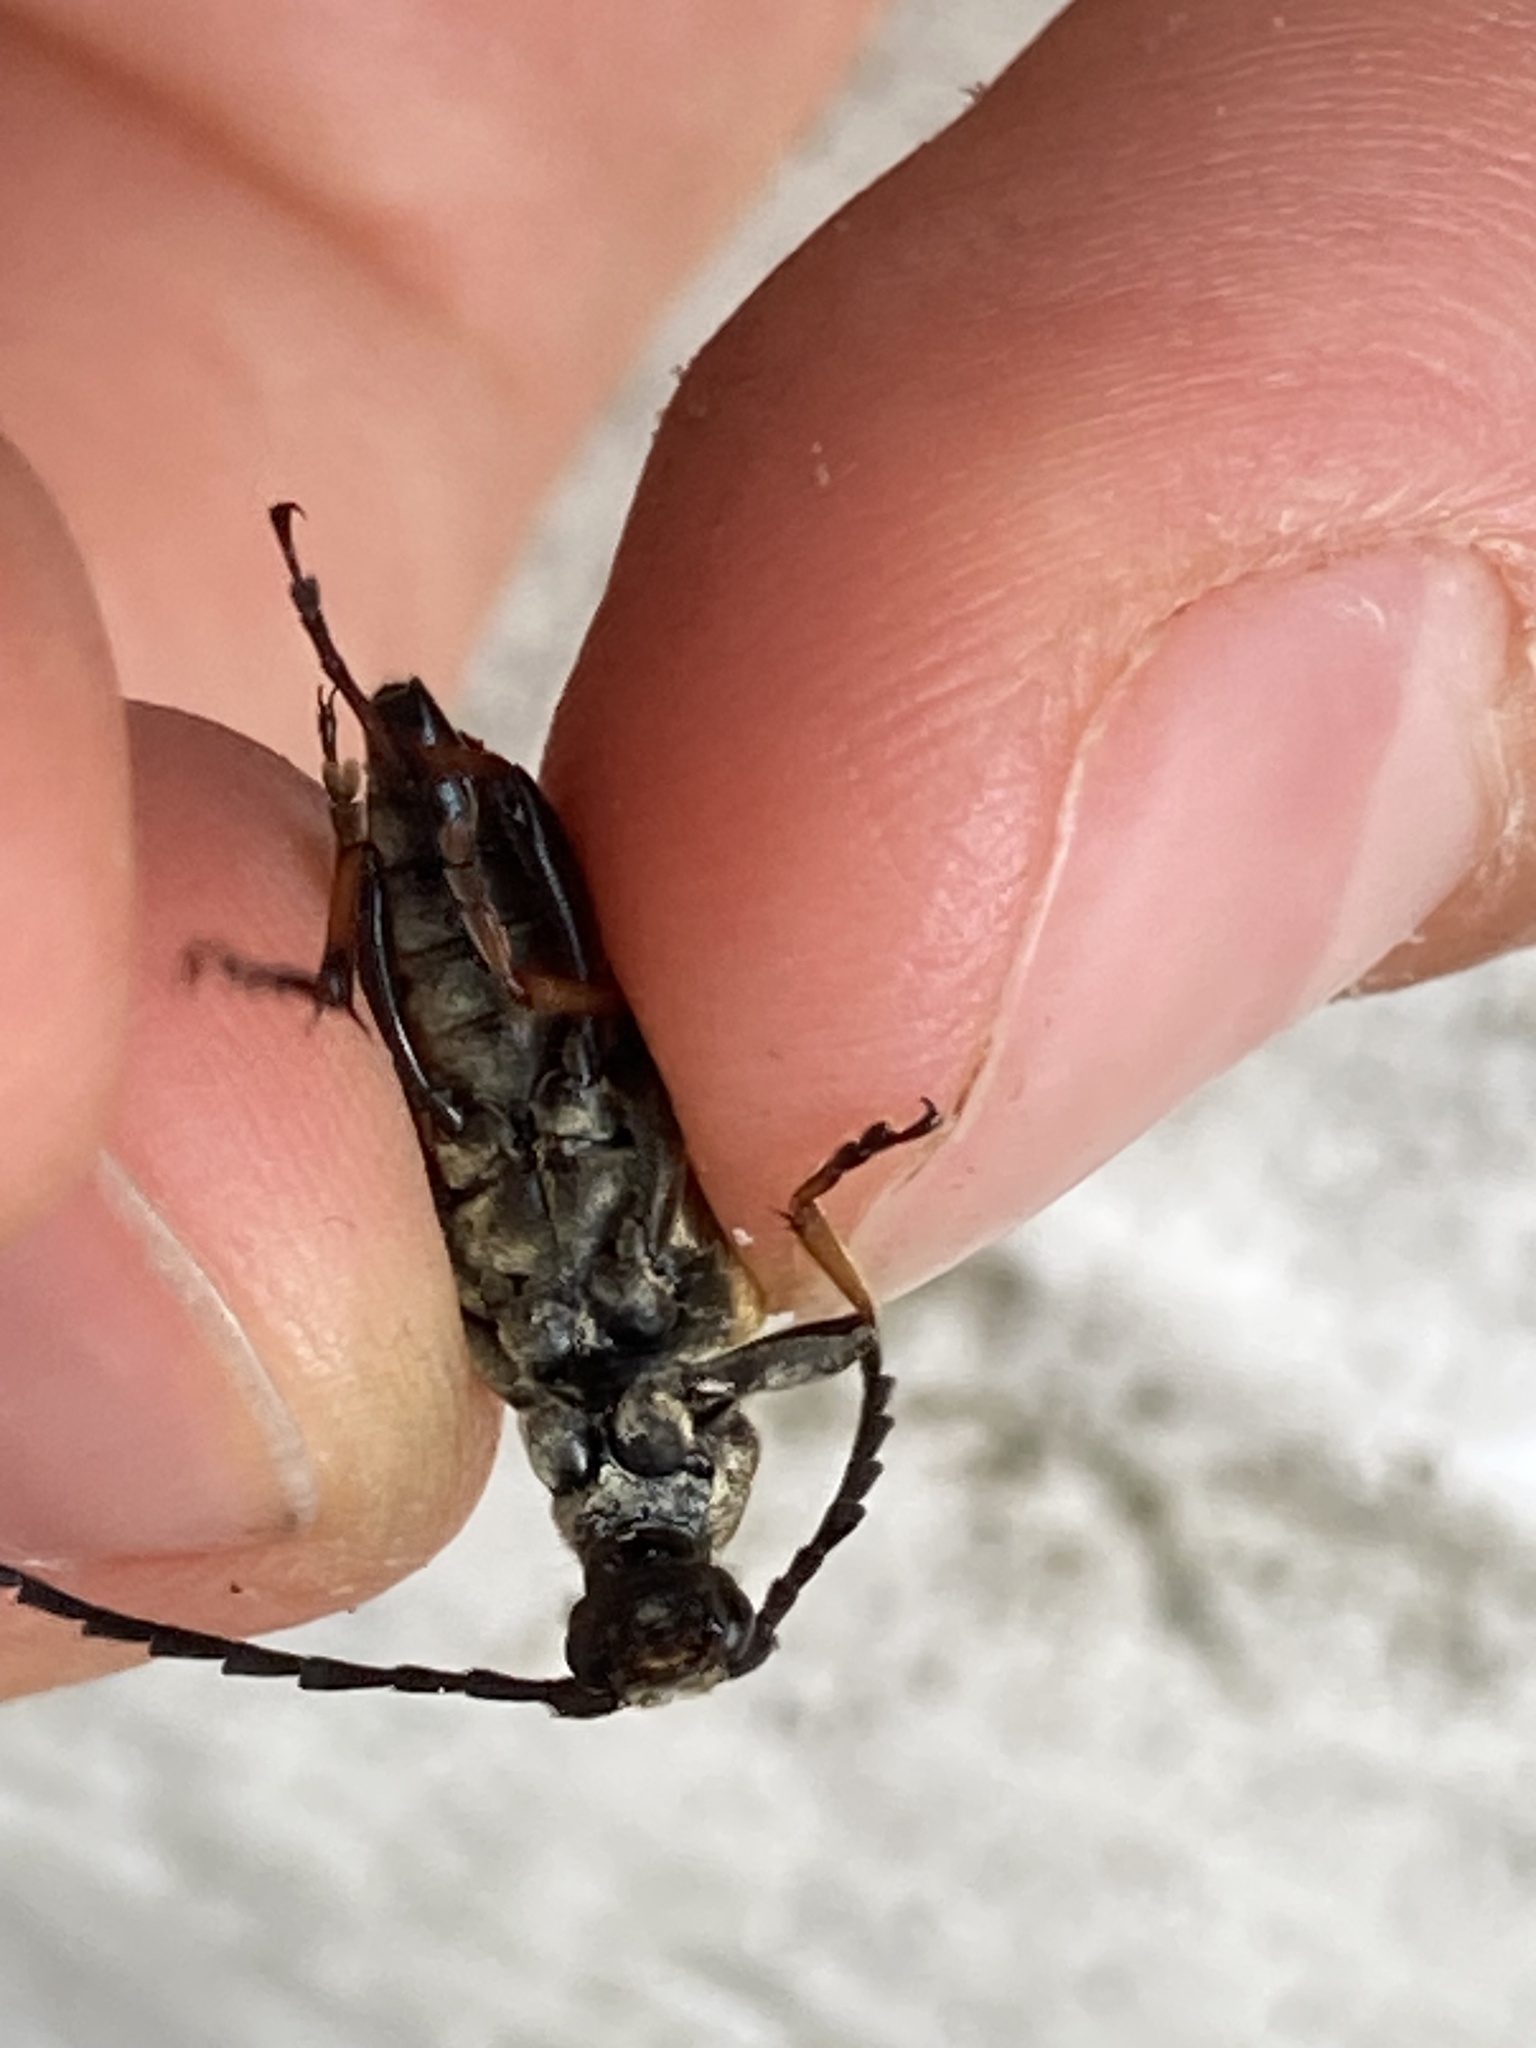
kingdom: Animalia
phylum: Arthropoda
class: Insecta
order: Coleoptera
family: Cerambycidae
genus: Stictoleptura
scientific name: Stictoleptura rubra
